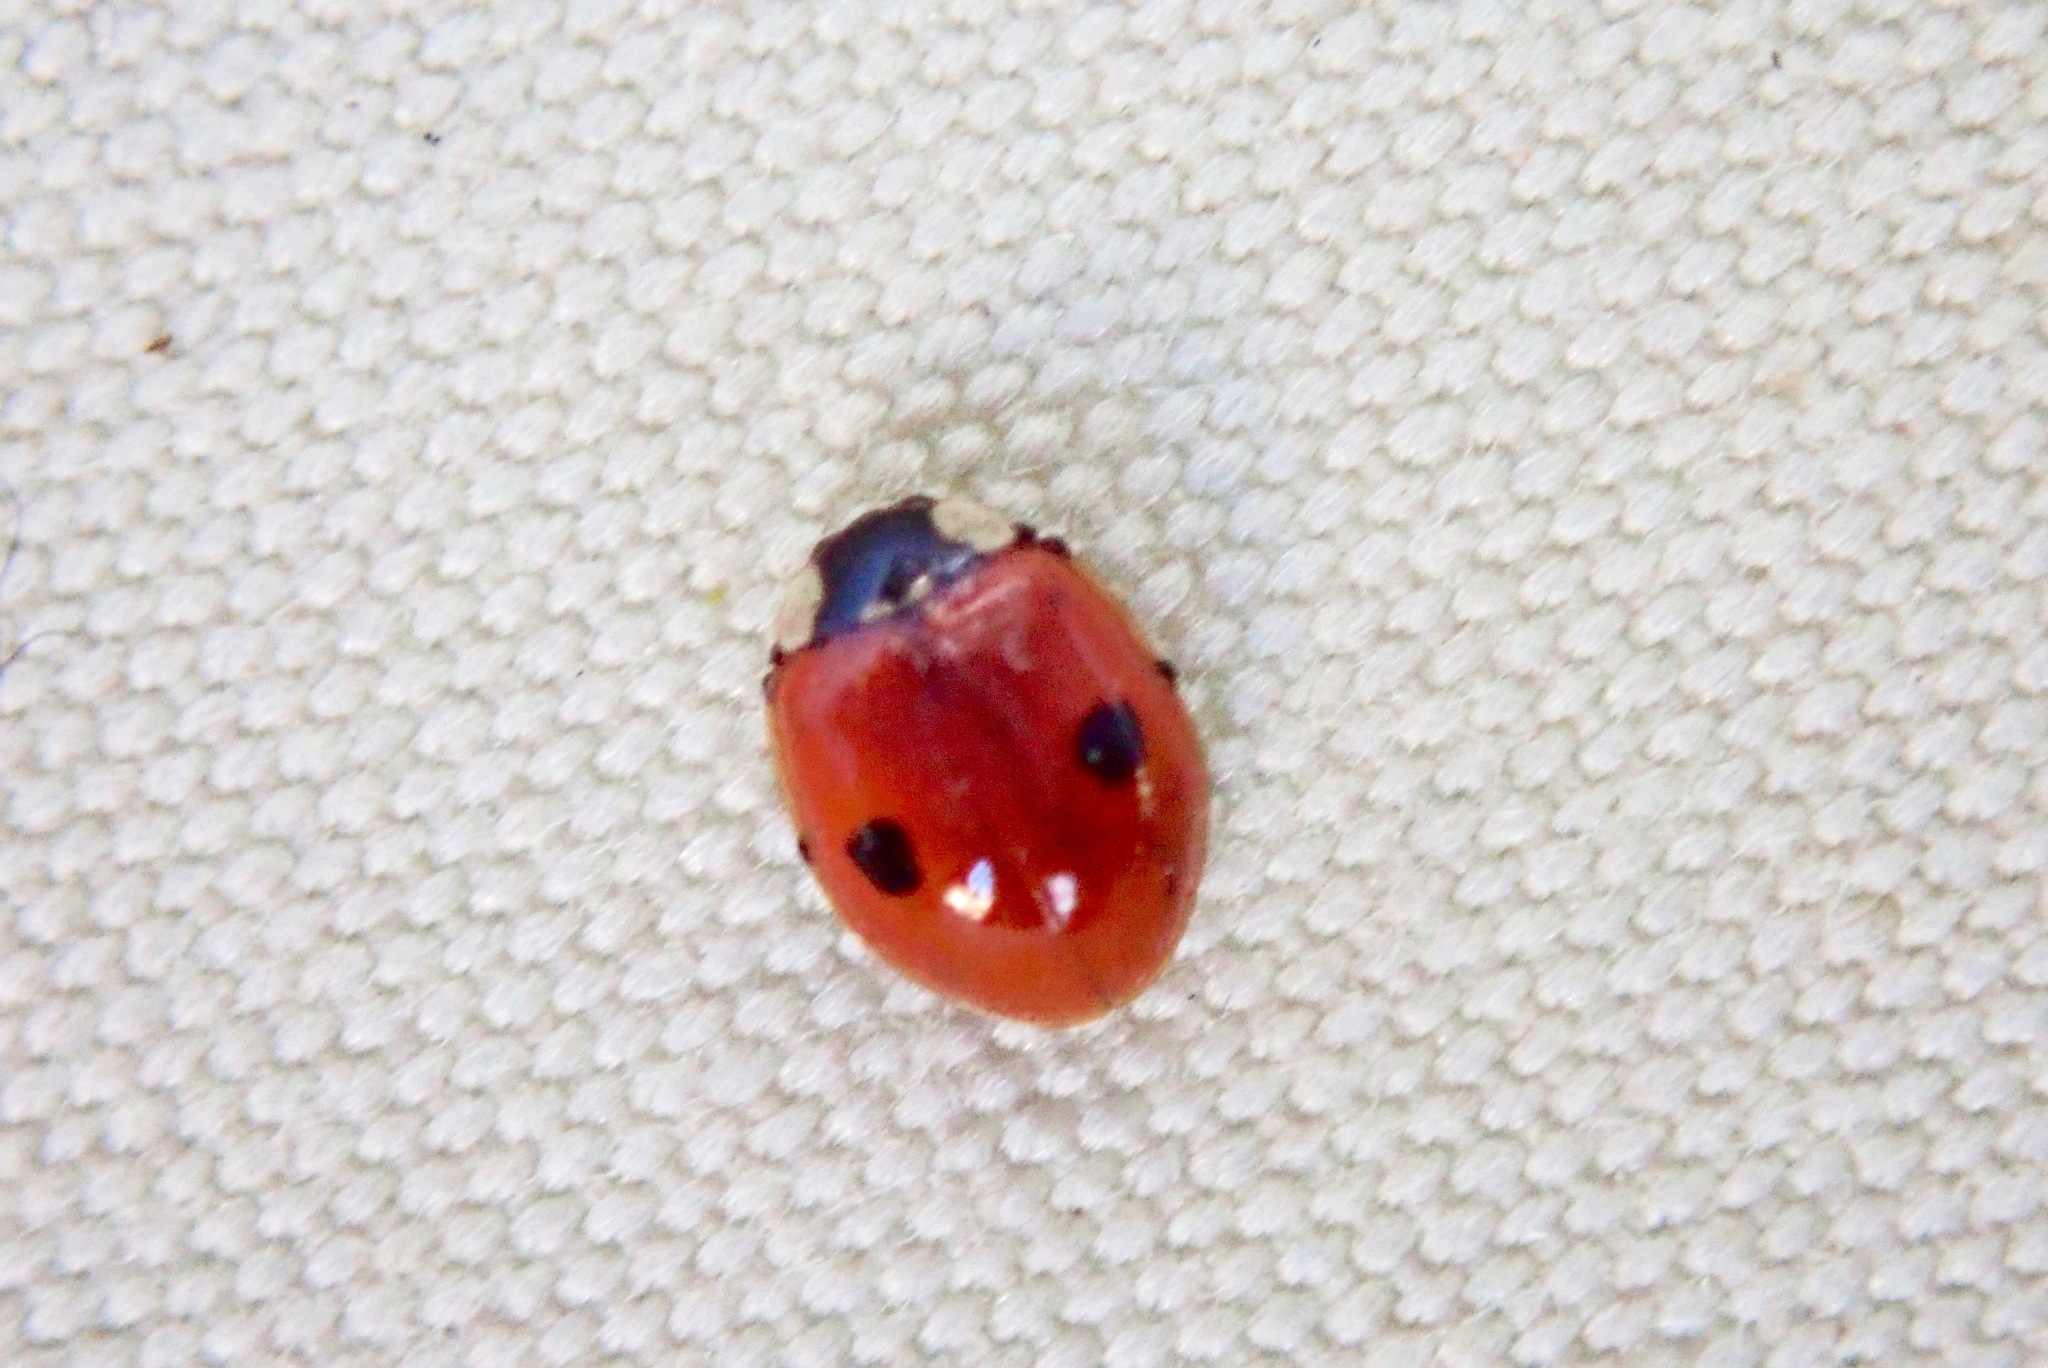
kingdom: Animalia
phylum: Arthropoda
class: Insecta
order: Coleoptera
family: Coccinellidae
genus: Adalia
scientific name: Adalia bipunctata
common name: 2-spot ladybird
